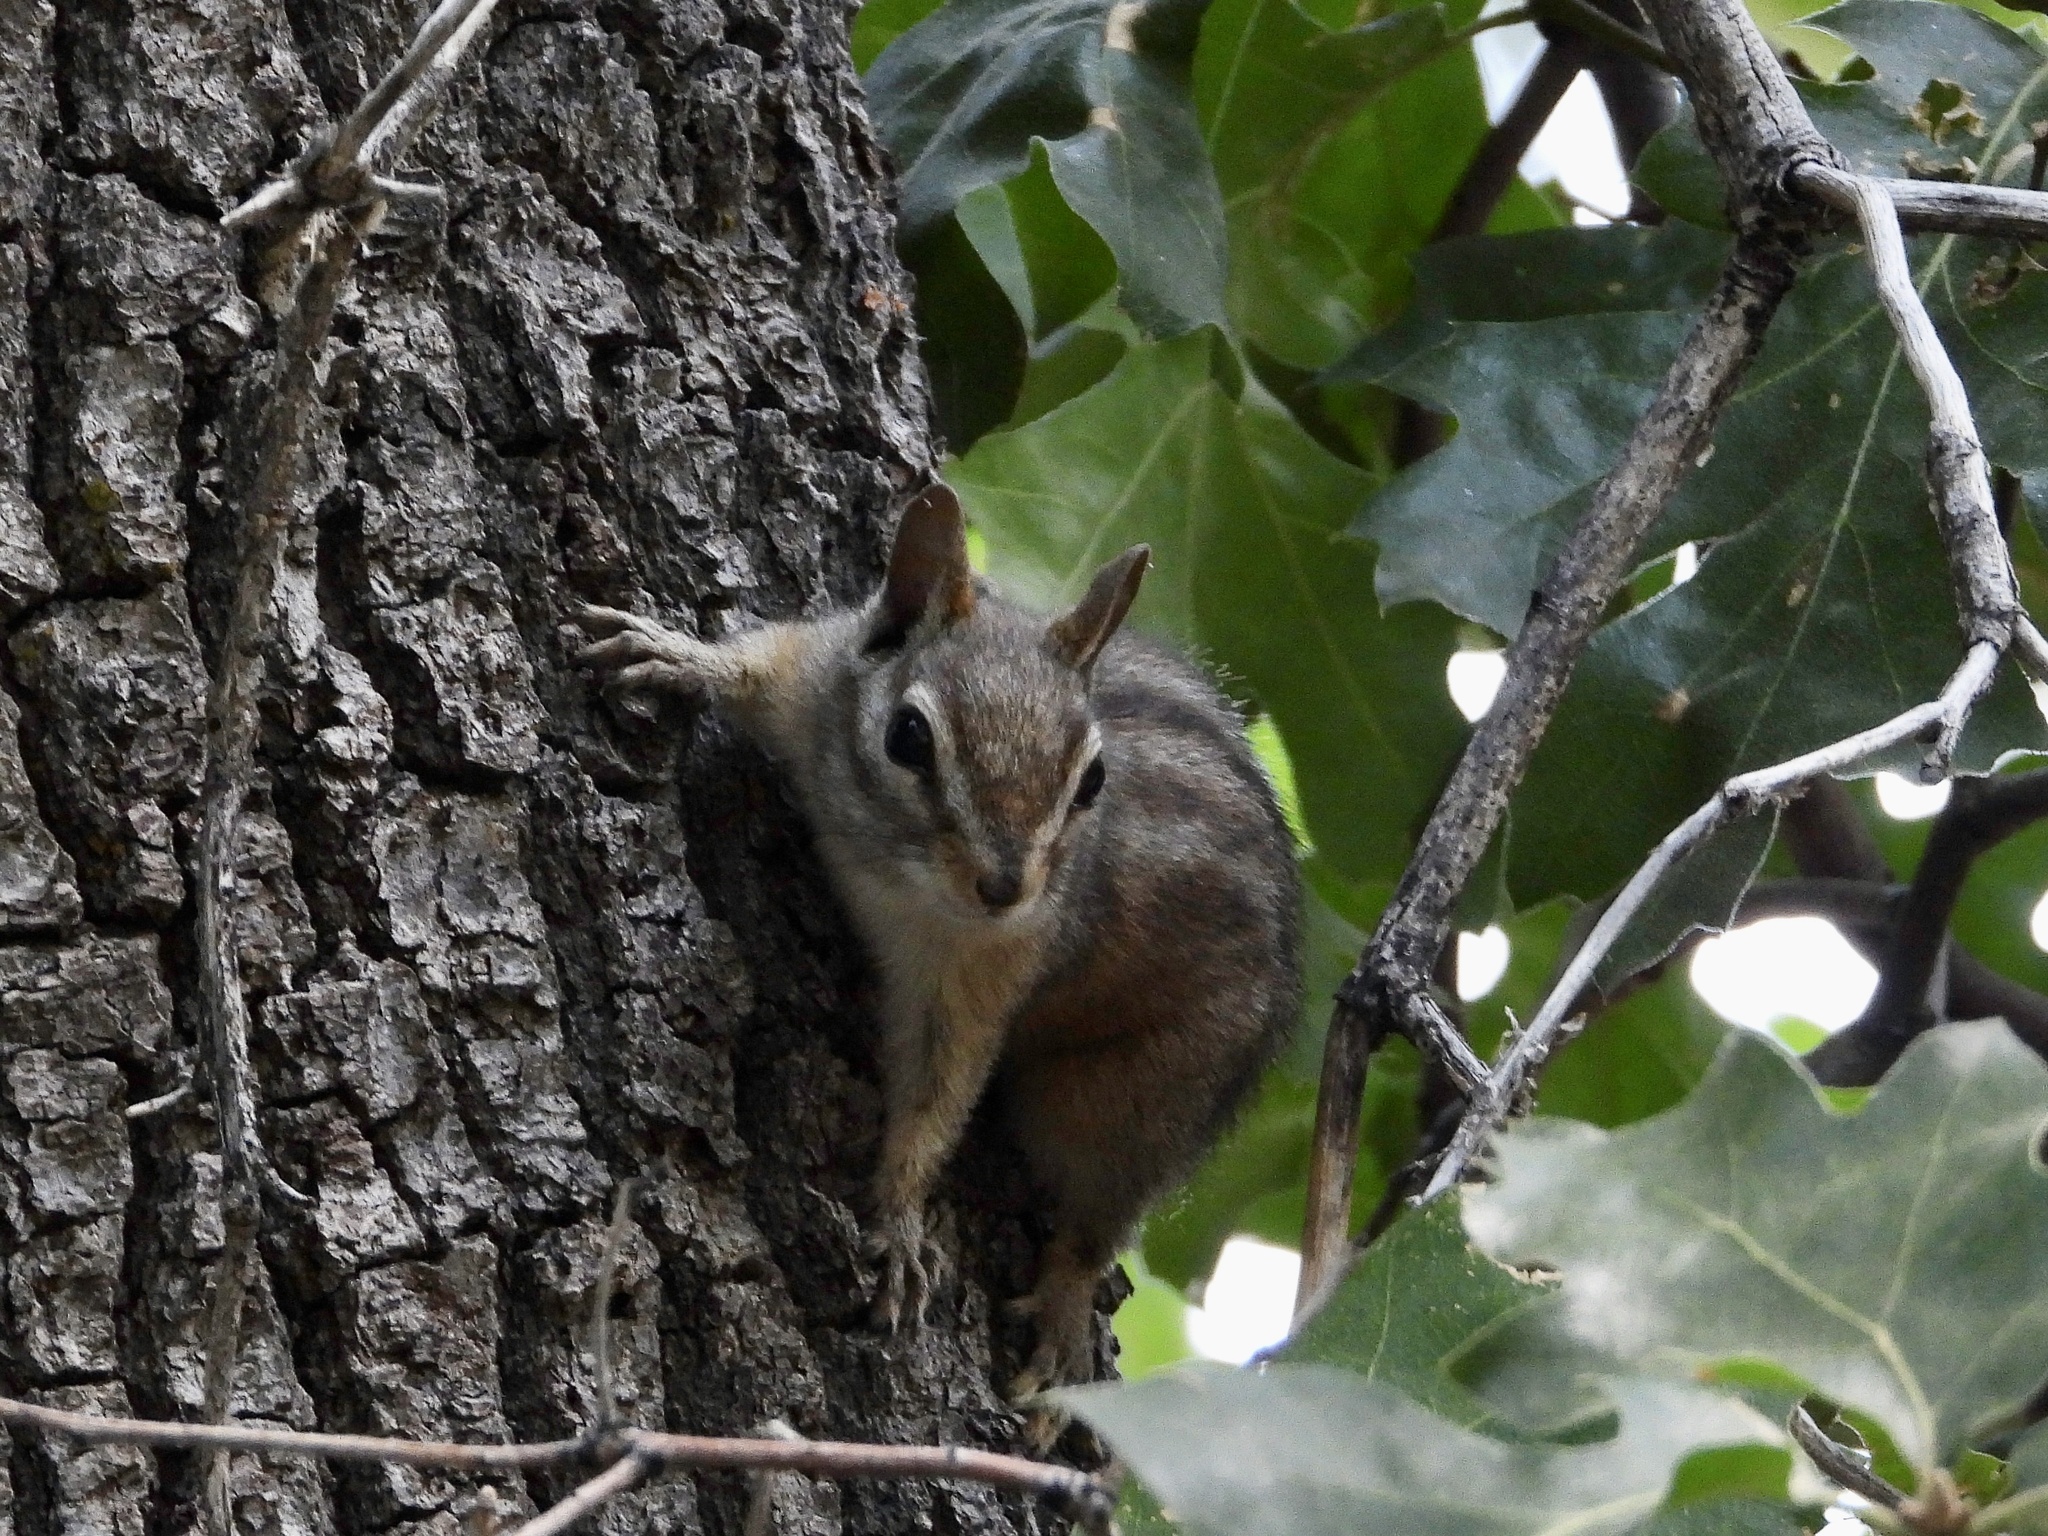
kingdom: Animalia
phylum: Chordata
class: Mammalia
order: Rodentia
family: Sciuridae
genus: Tamias
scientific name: Tamias merriami
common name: Merriam's chipmunk
